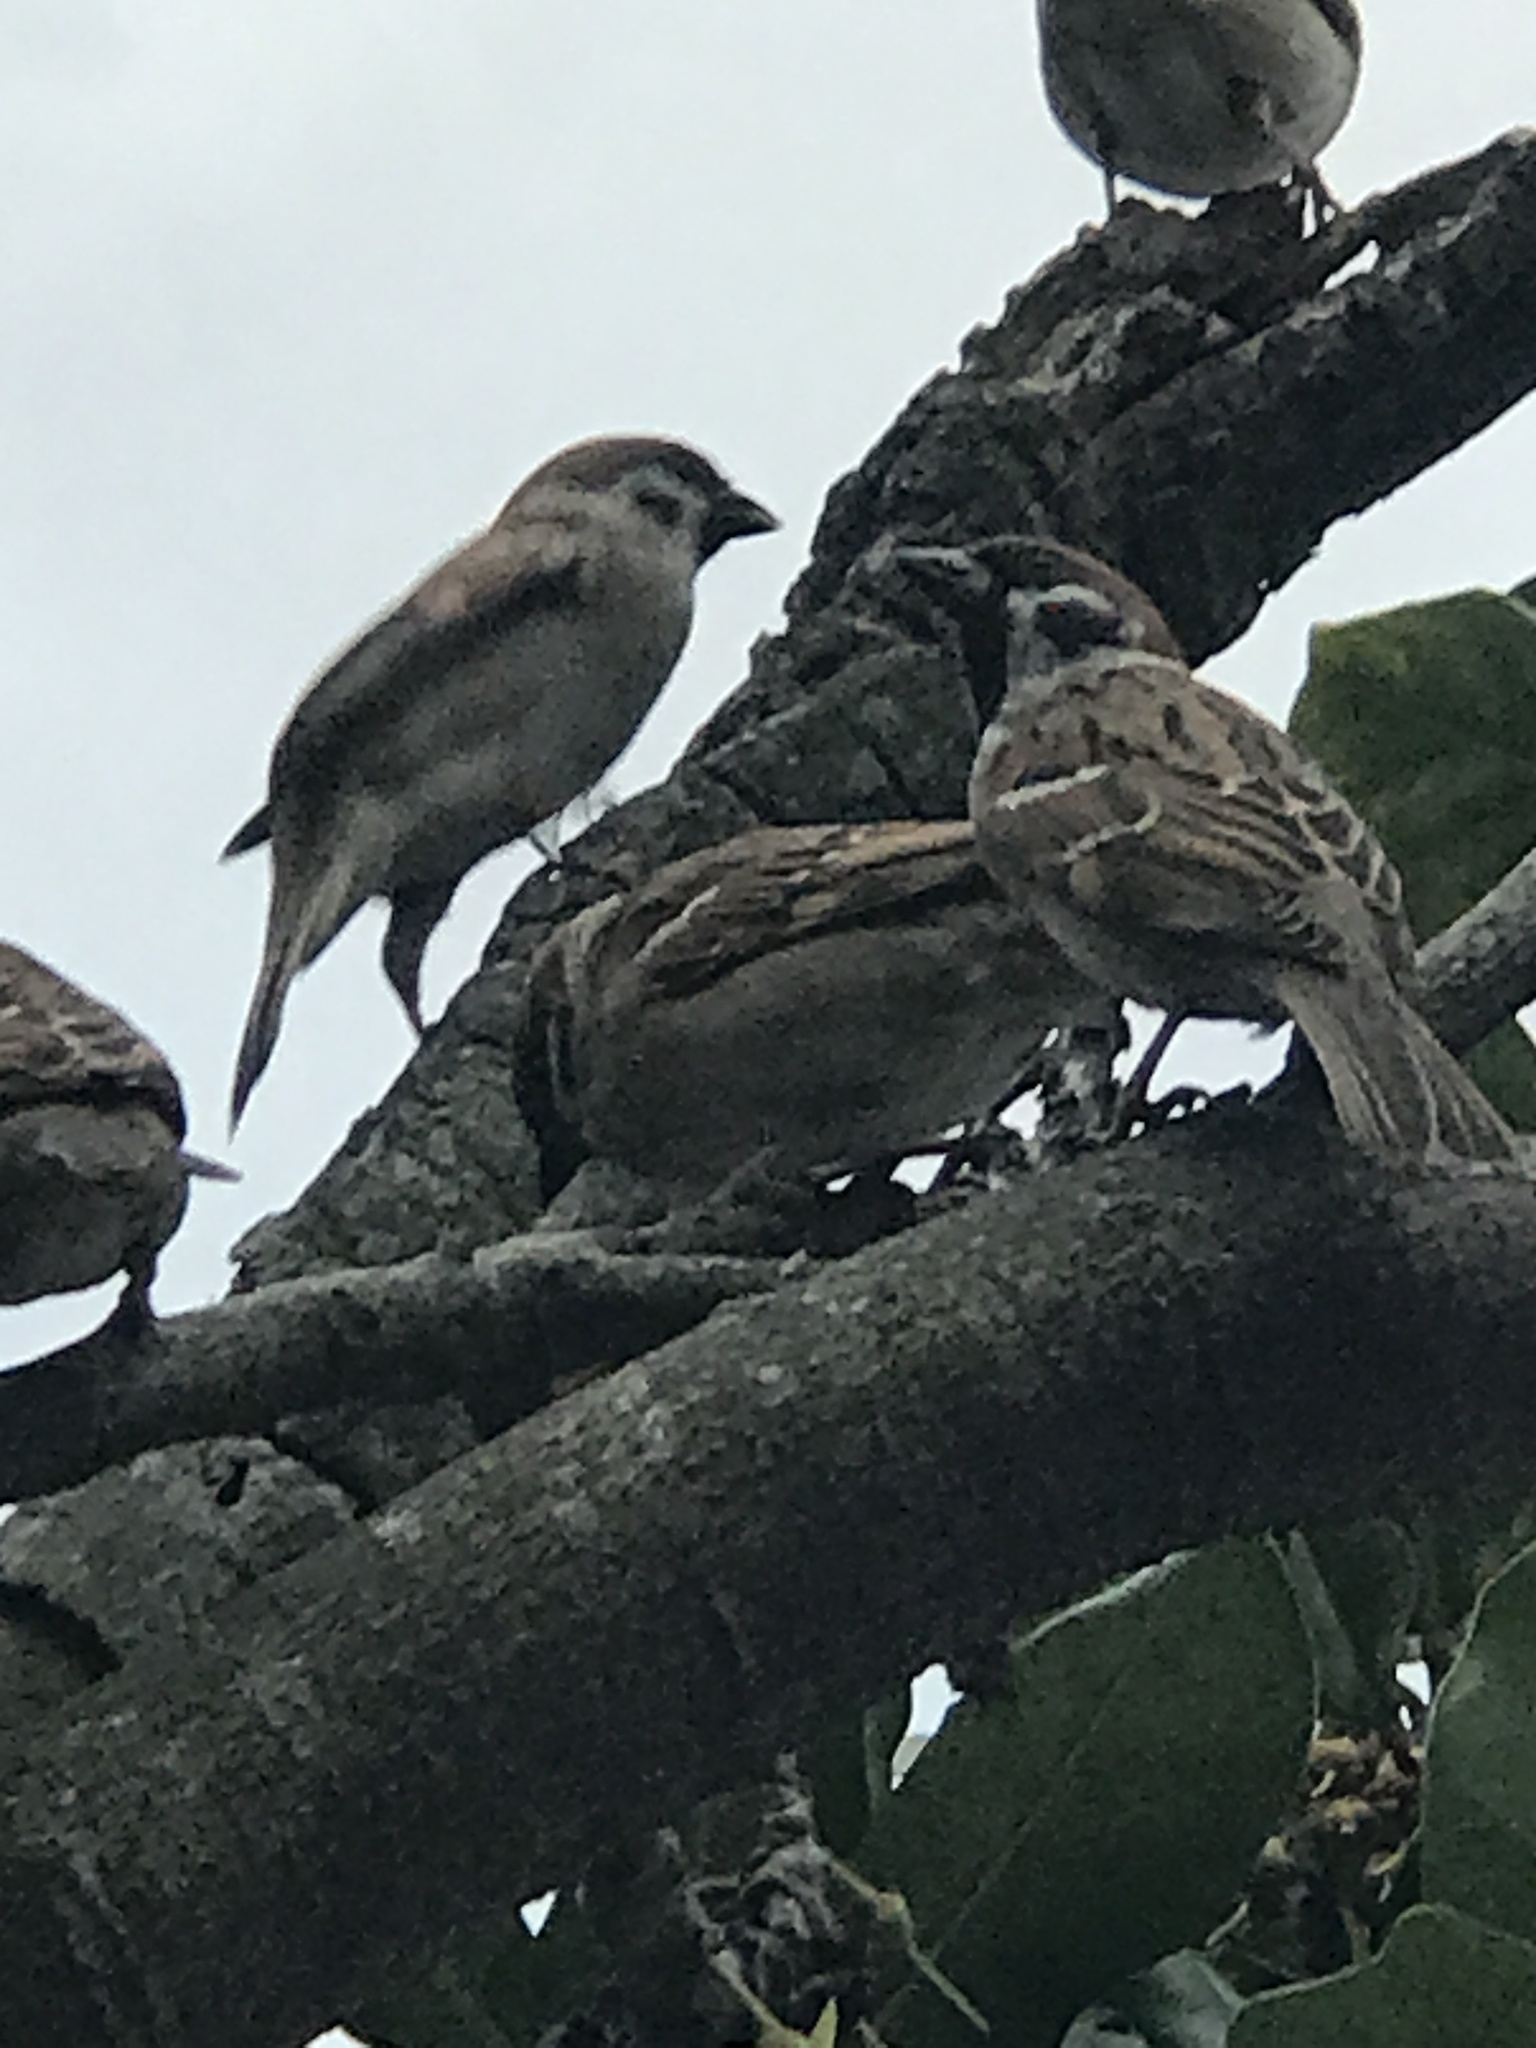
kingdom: Animalia
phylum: Chordata
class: Aves
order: Passeriformes
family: Passeridae
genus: Passer
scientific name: Passer montanus
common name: Eurasian tree sparrow
